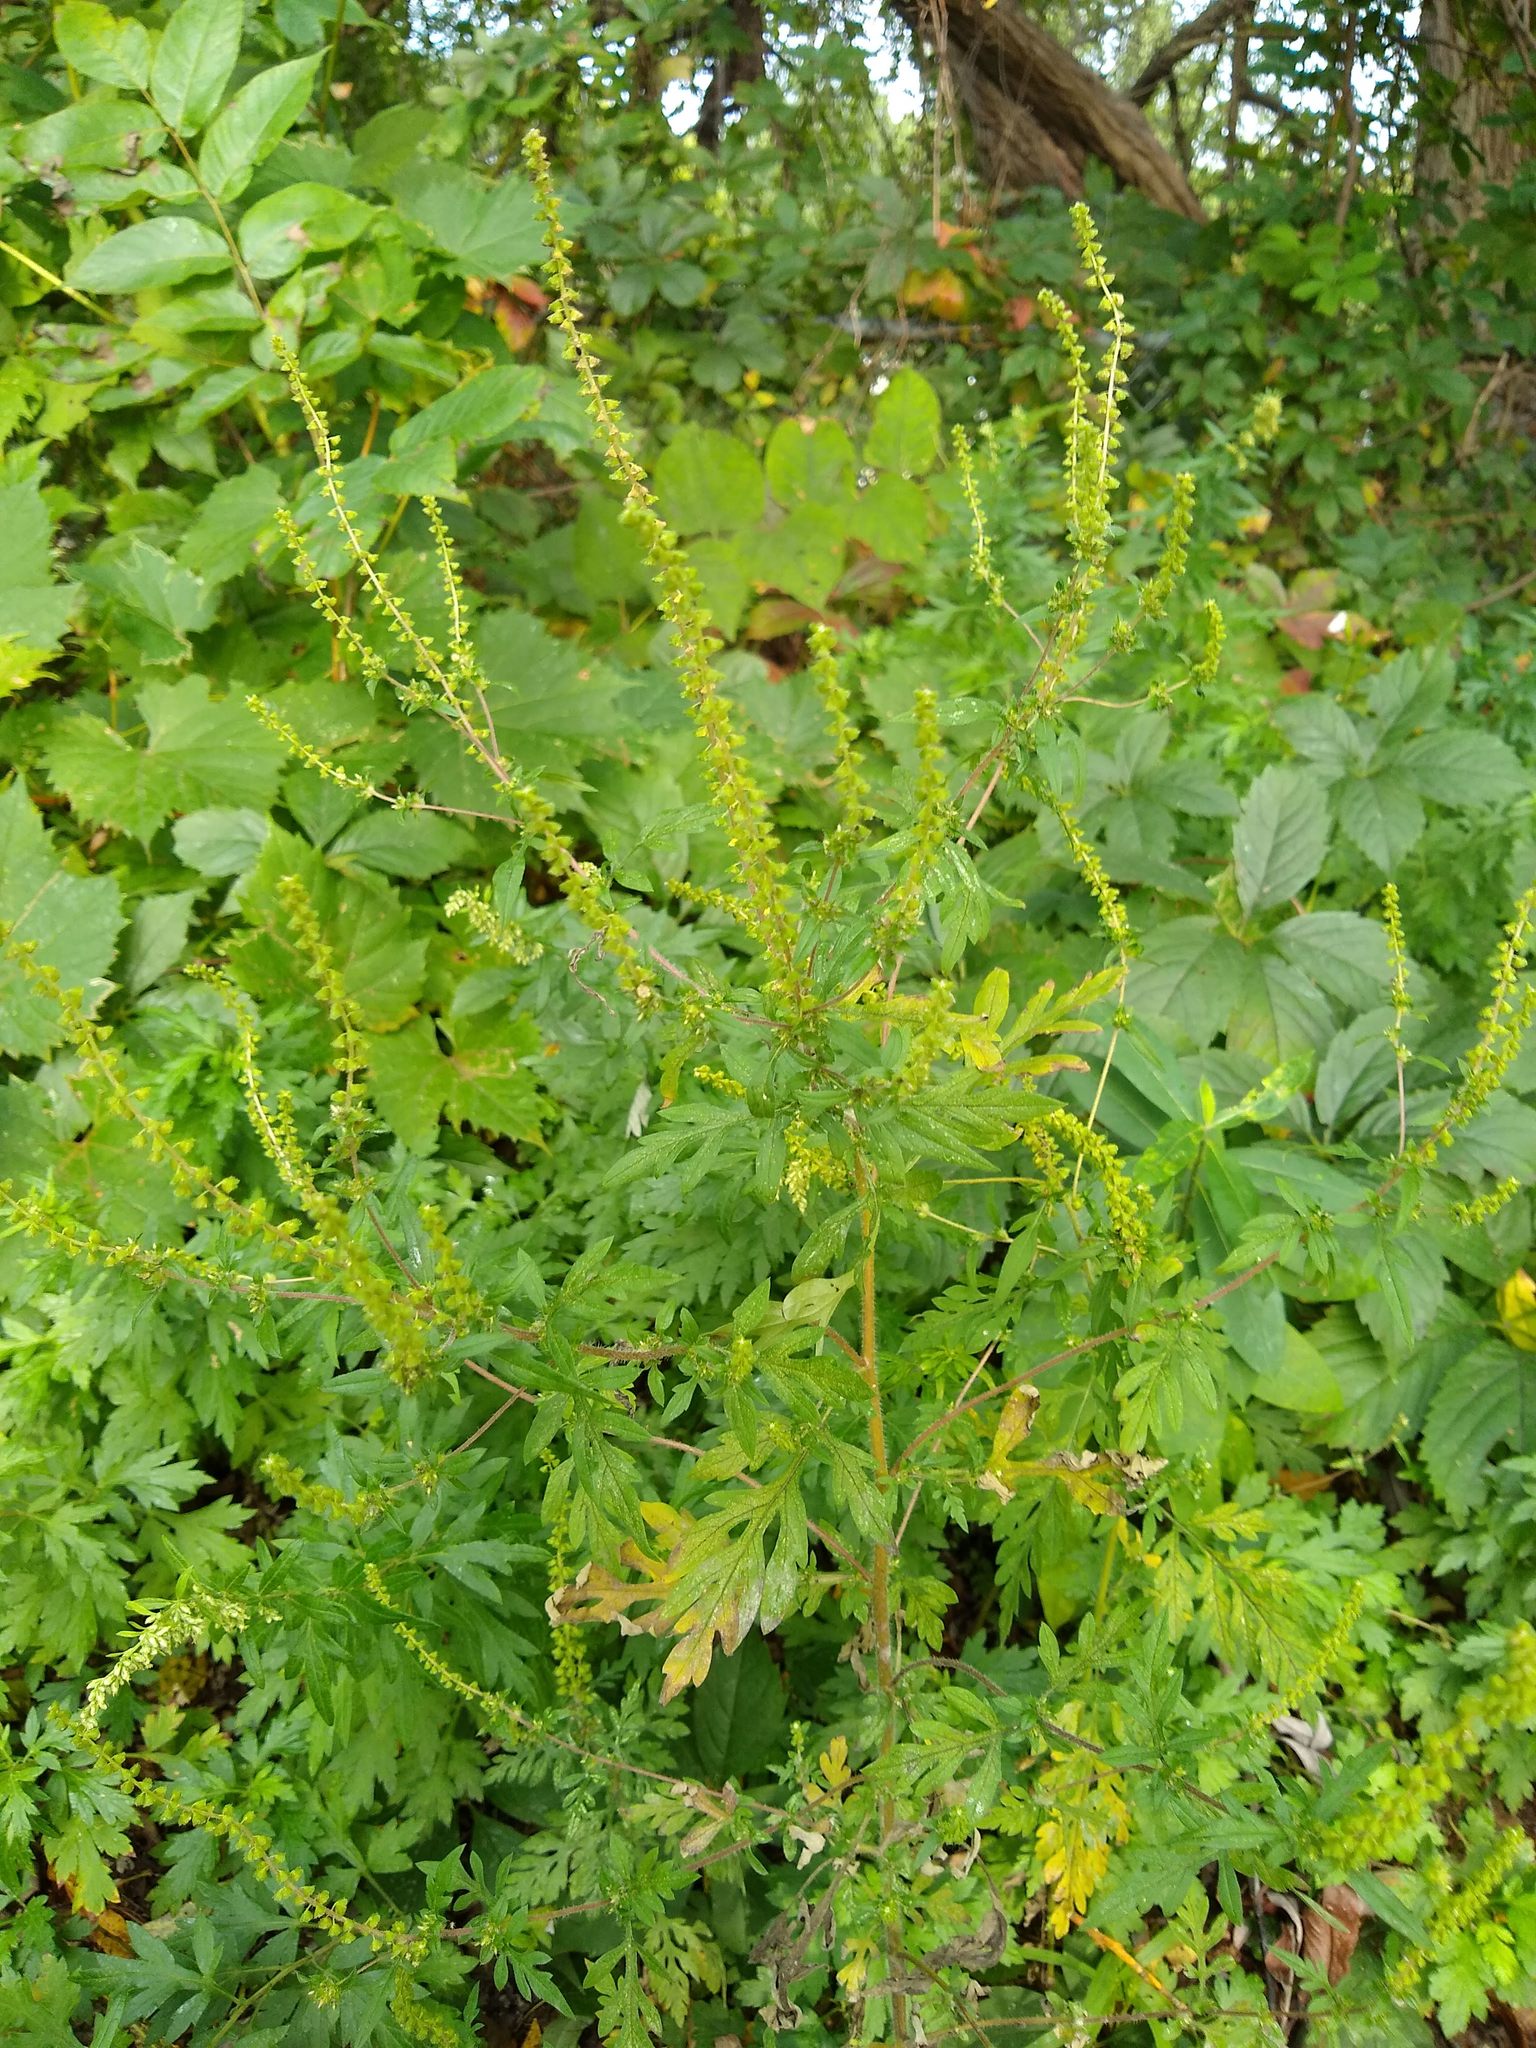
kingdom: Plantae
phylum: Tracheophyta
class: Magnoliopsida
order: Asterales
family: Asteraceae
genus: Ambrosia
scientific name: Ambrosia artemisiifolia
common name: Annual ragweed
